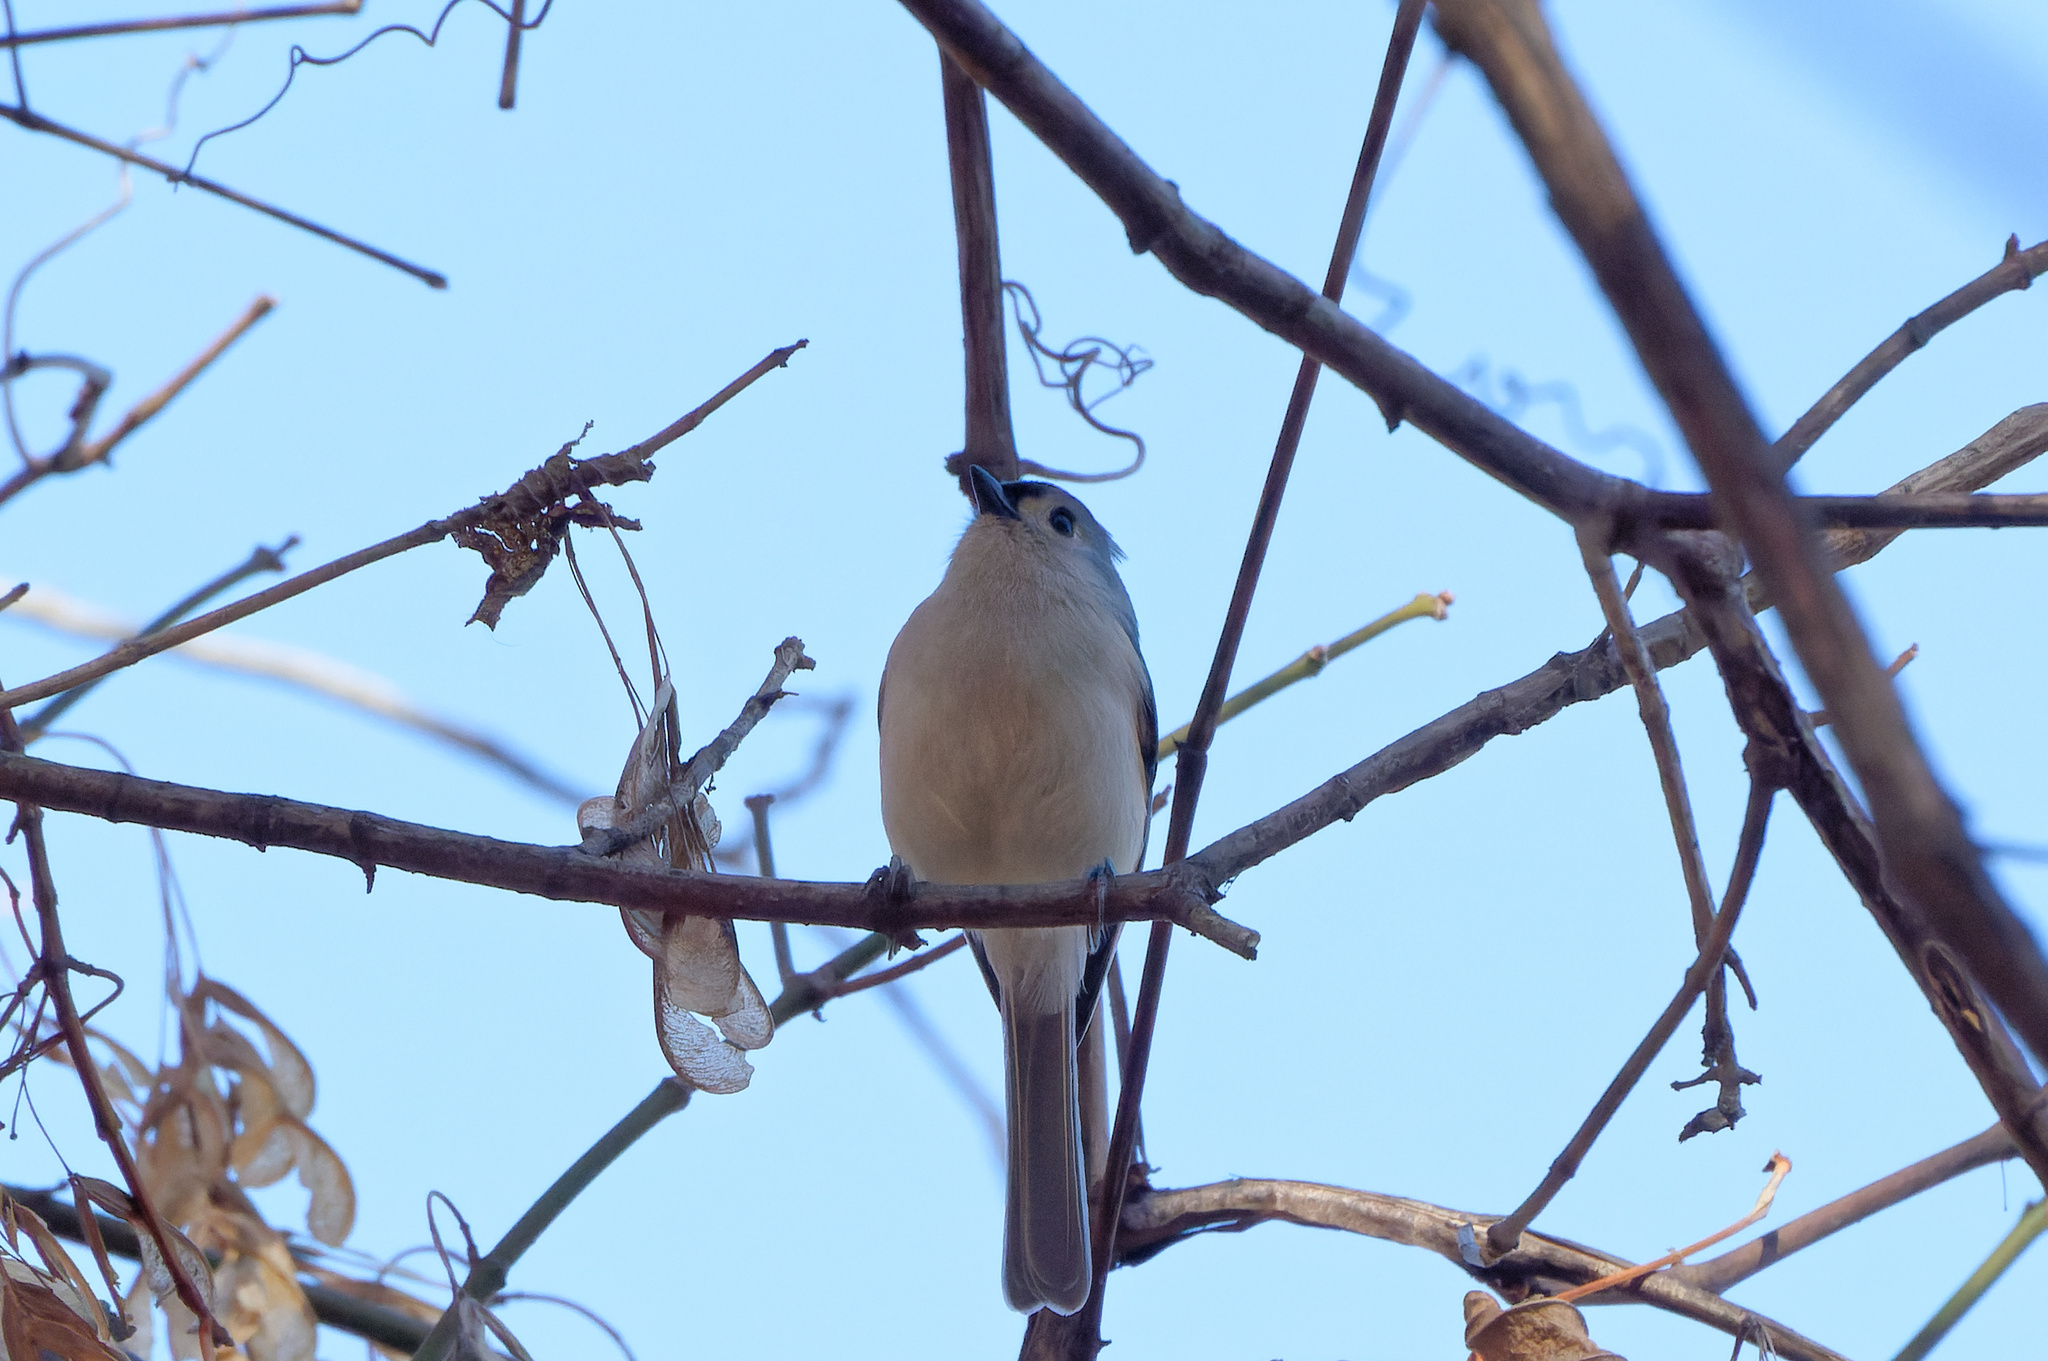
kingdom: Animalia
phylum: Chordata
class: Aves
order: Passeriformes
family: Paridae
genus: Baeolophus
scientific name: Baeolophus bicolor
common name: Tufted titmouse
